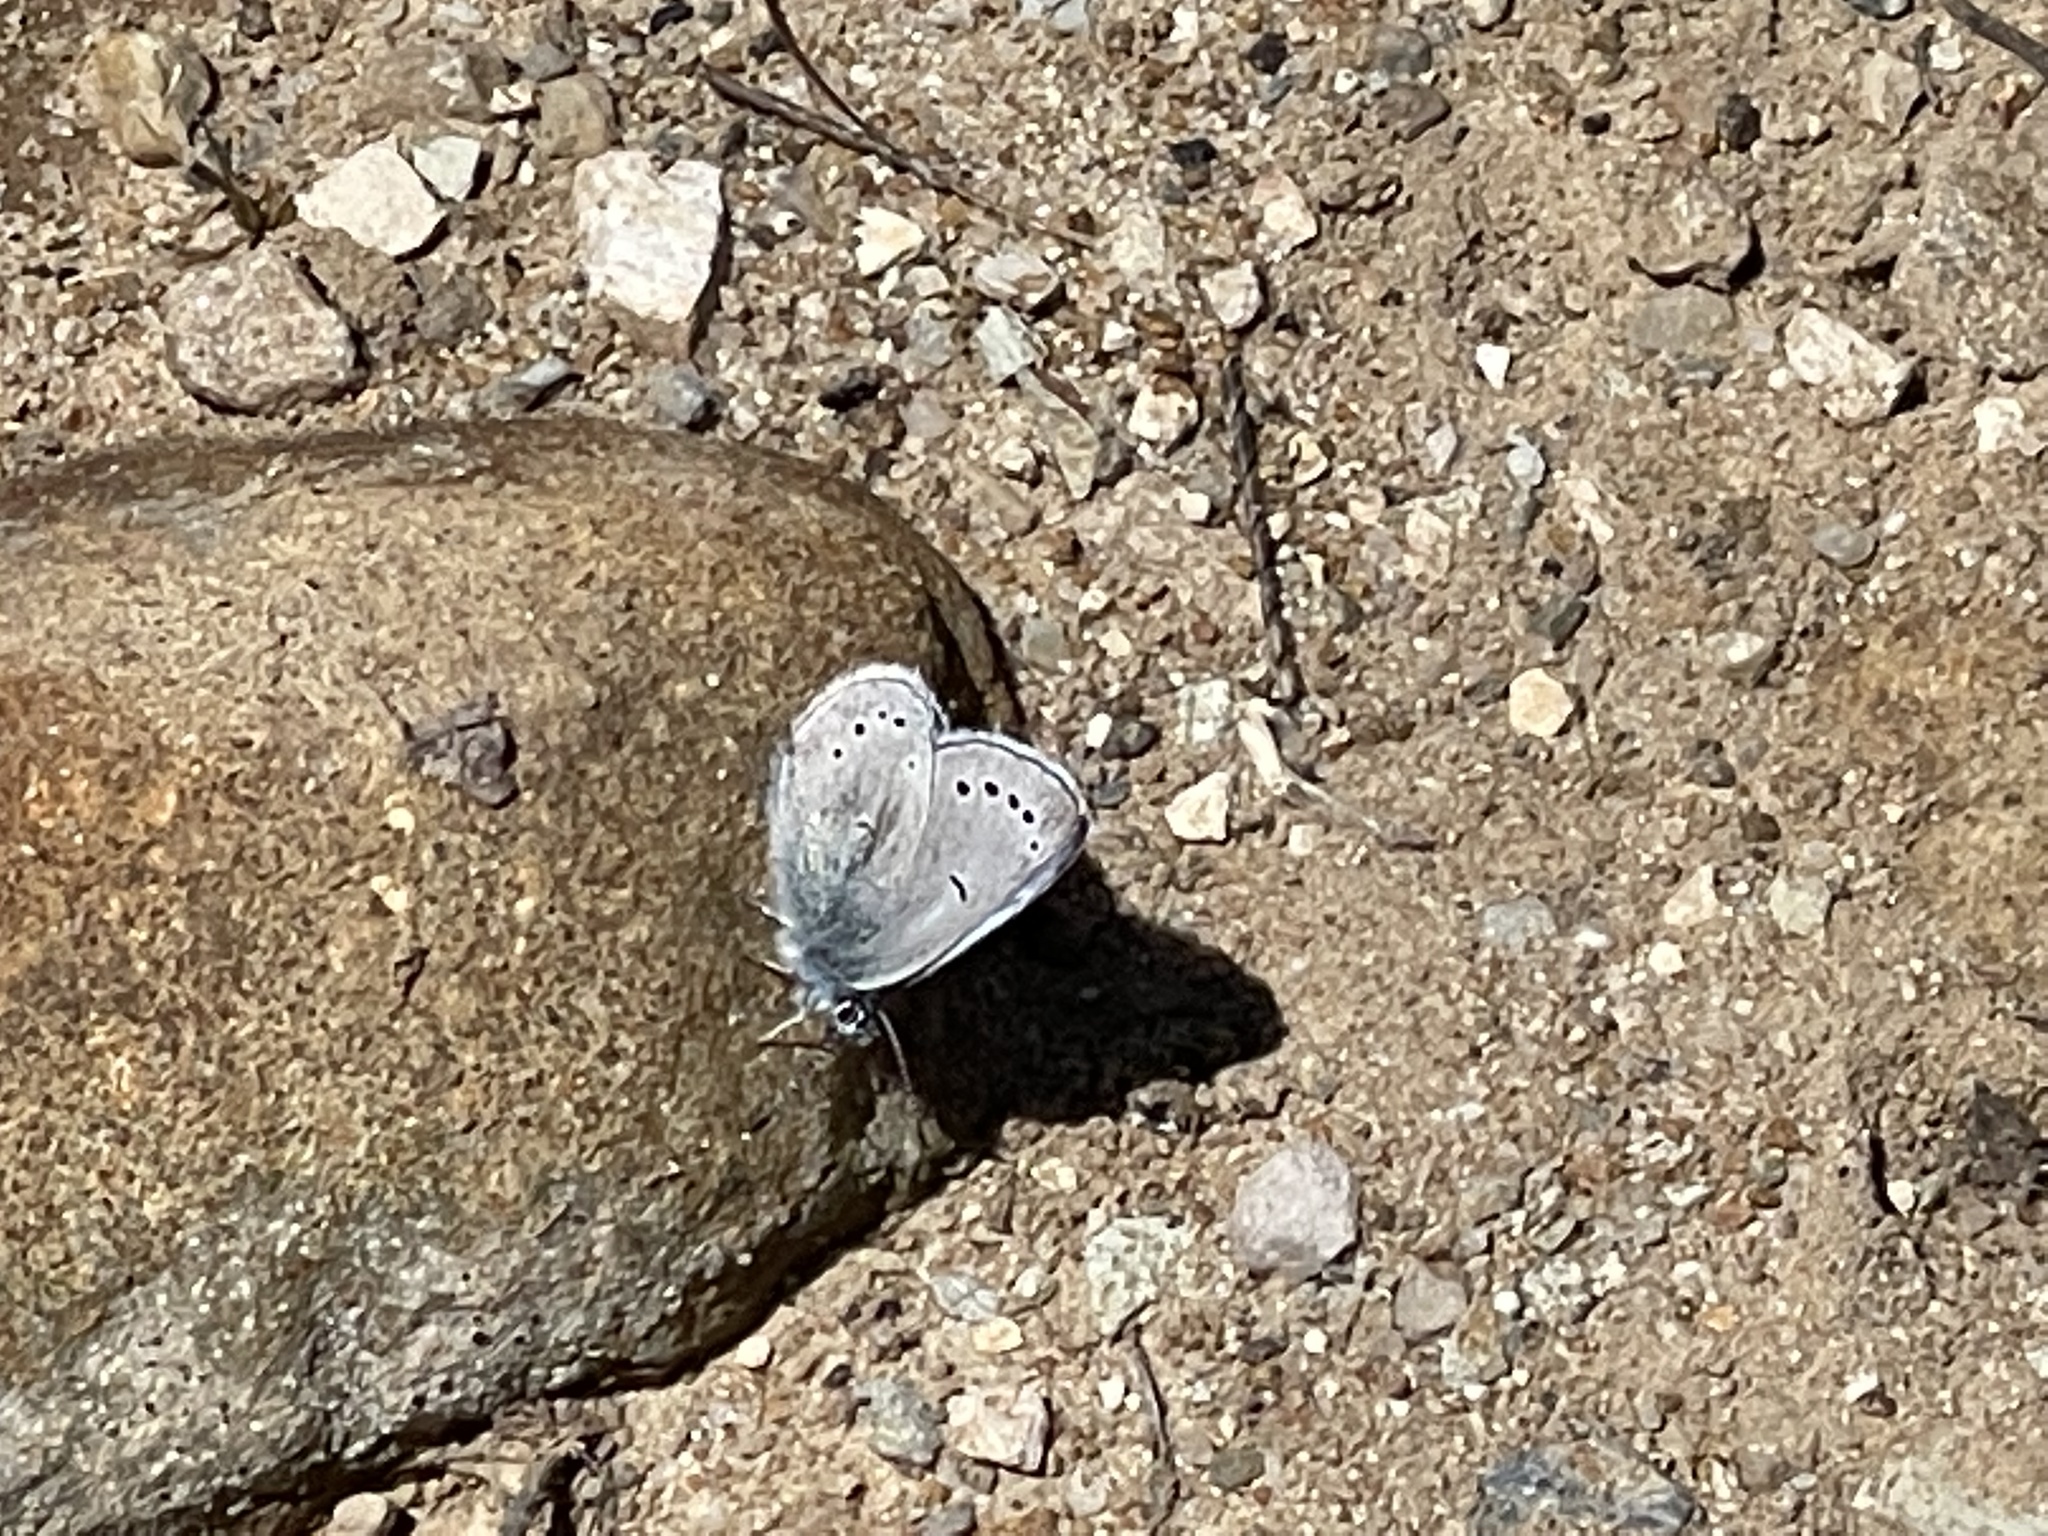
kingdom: Animalia
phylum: Arthropoda
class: Insecta
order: Lepidoptera
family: Lycaenidae
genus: Glaucopsyche
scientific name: Glaucopsyche lygdamus
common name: Silvery blue
